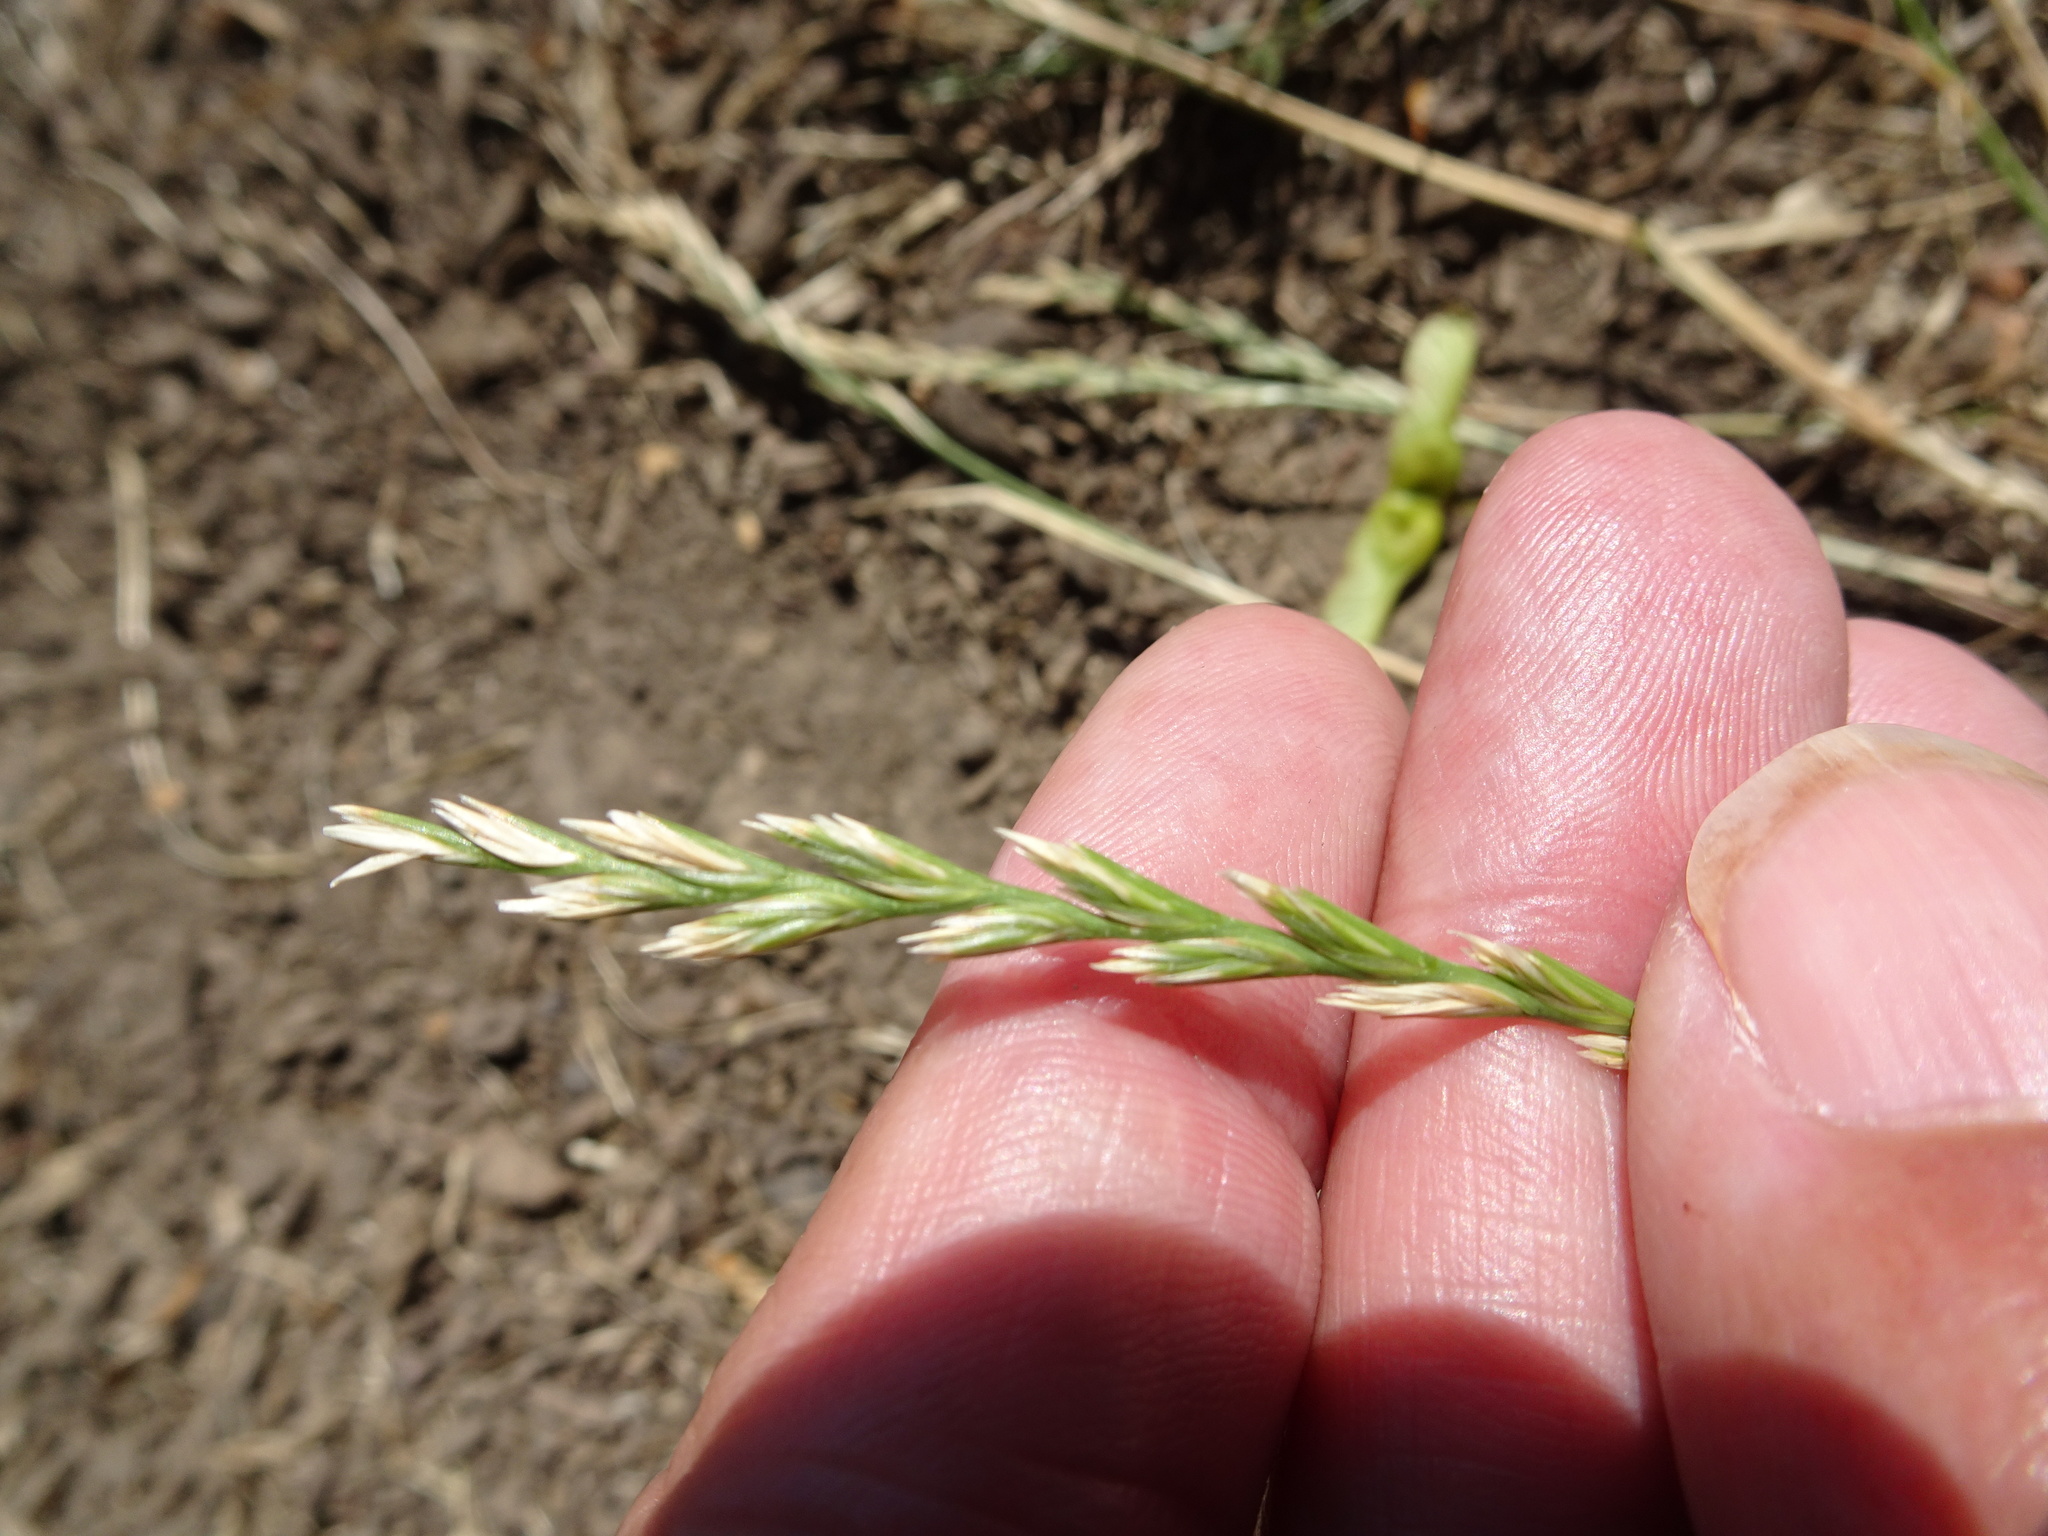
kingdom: Plantae
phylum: Tracheophyta
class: Liliopsida
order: Poales
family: Poaceae
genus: Lolium
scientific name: Lolium perenne
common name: Perennial ryegrass
